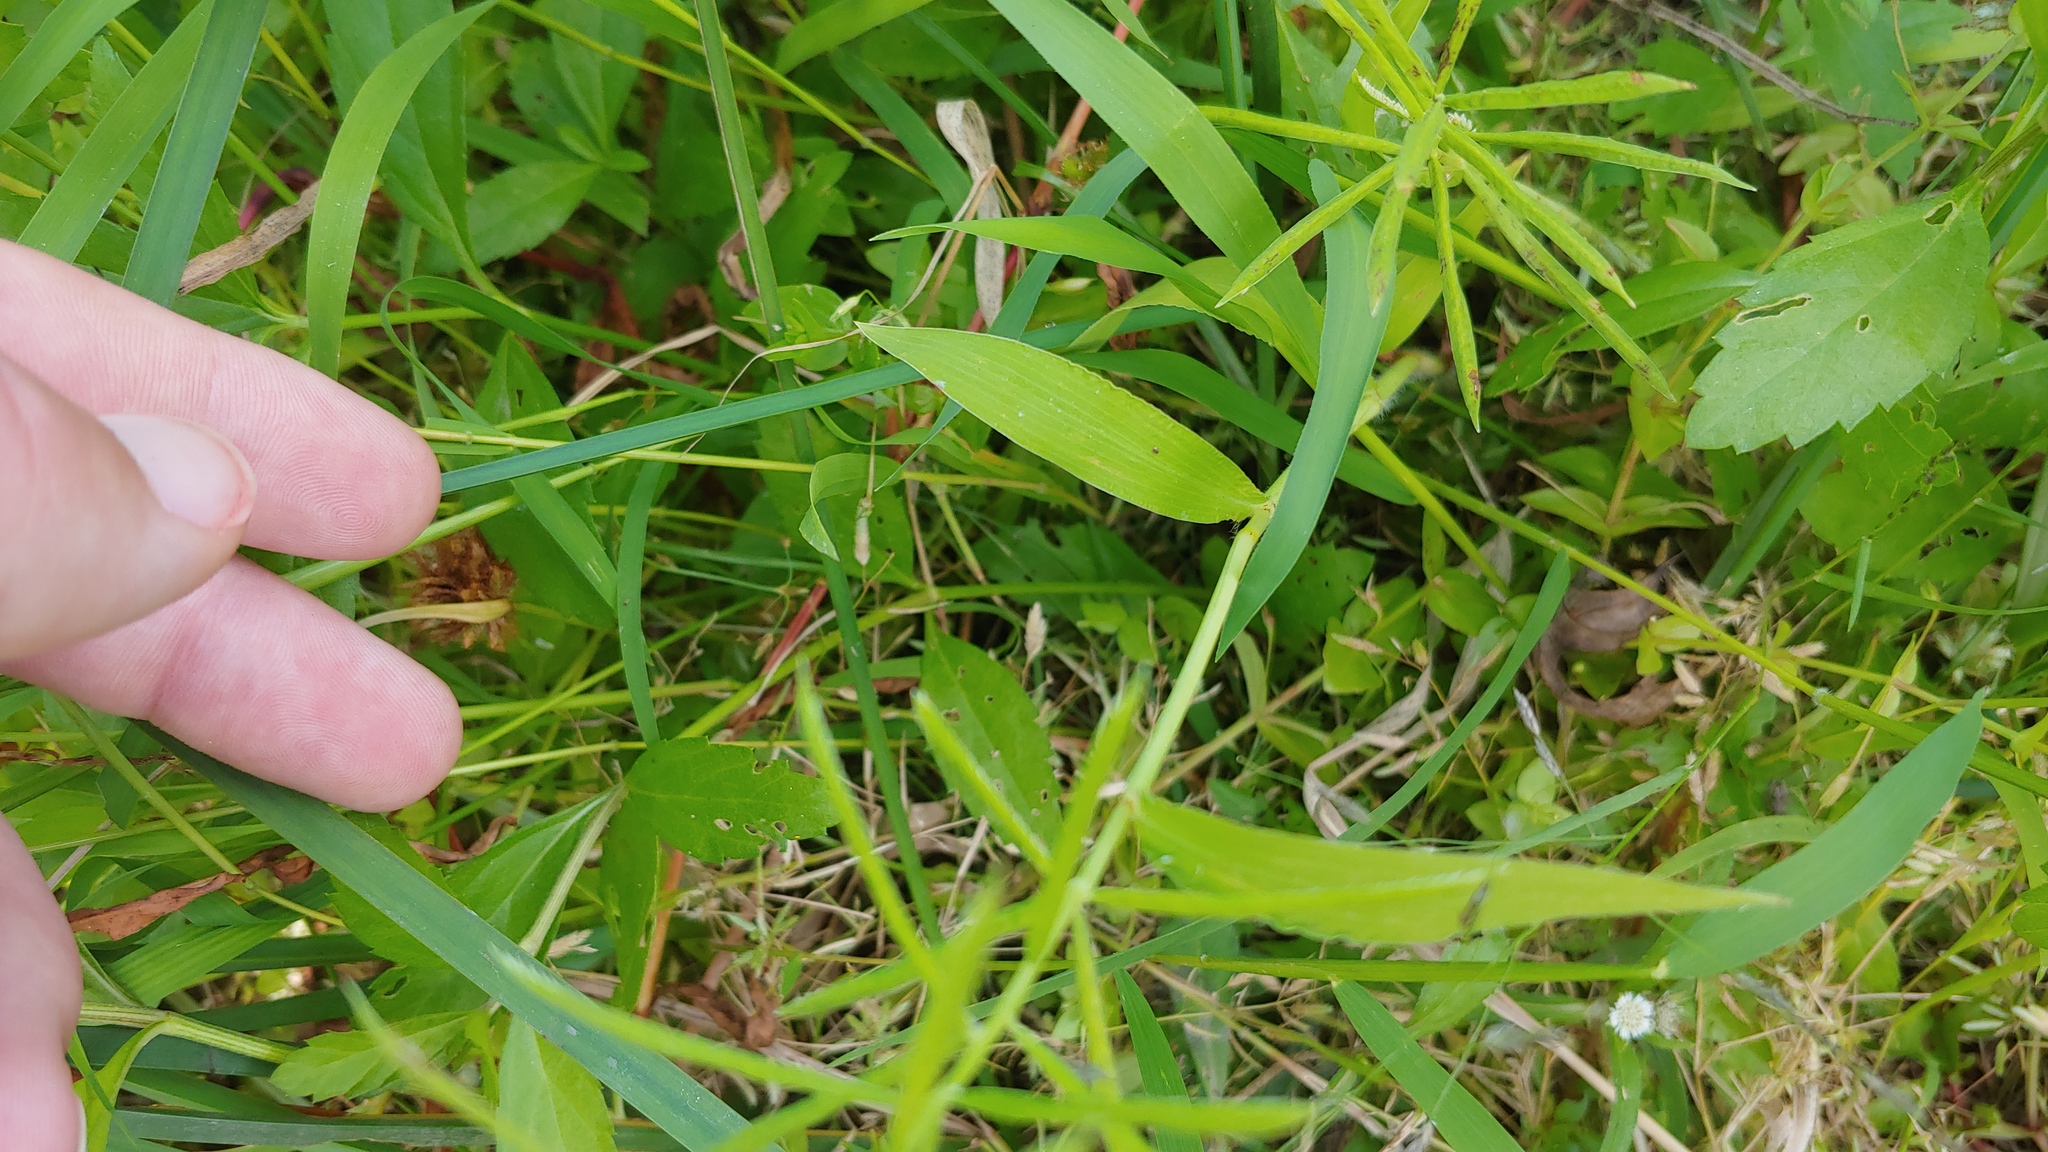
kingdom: Plantae
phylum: Tracheophyta
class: Liliopsida
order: Poales
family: Poaceae
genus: Paspalum
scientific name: Paspalum repens
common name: Water paspalum
